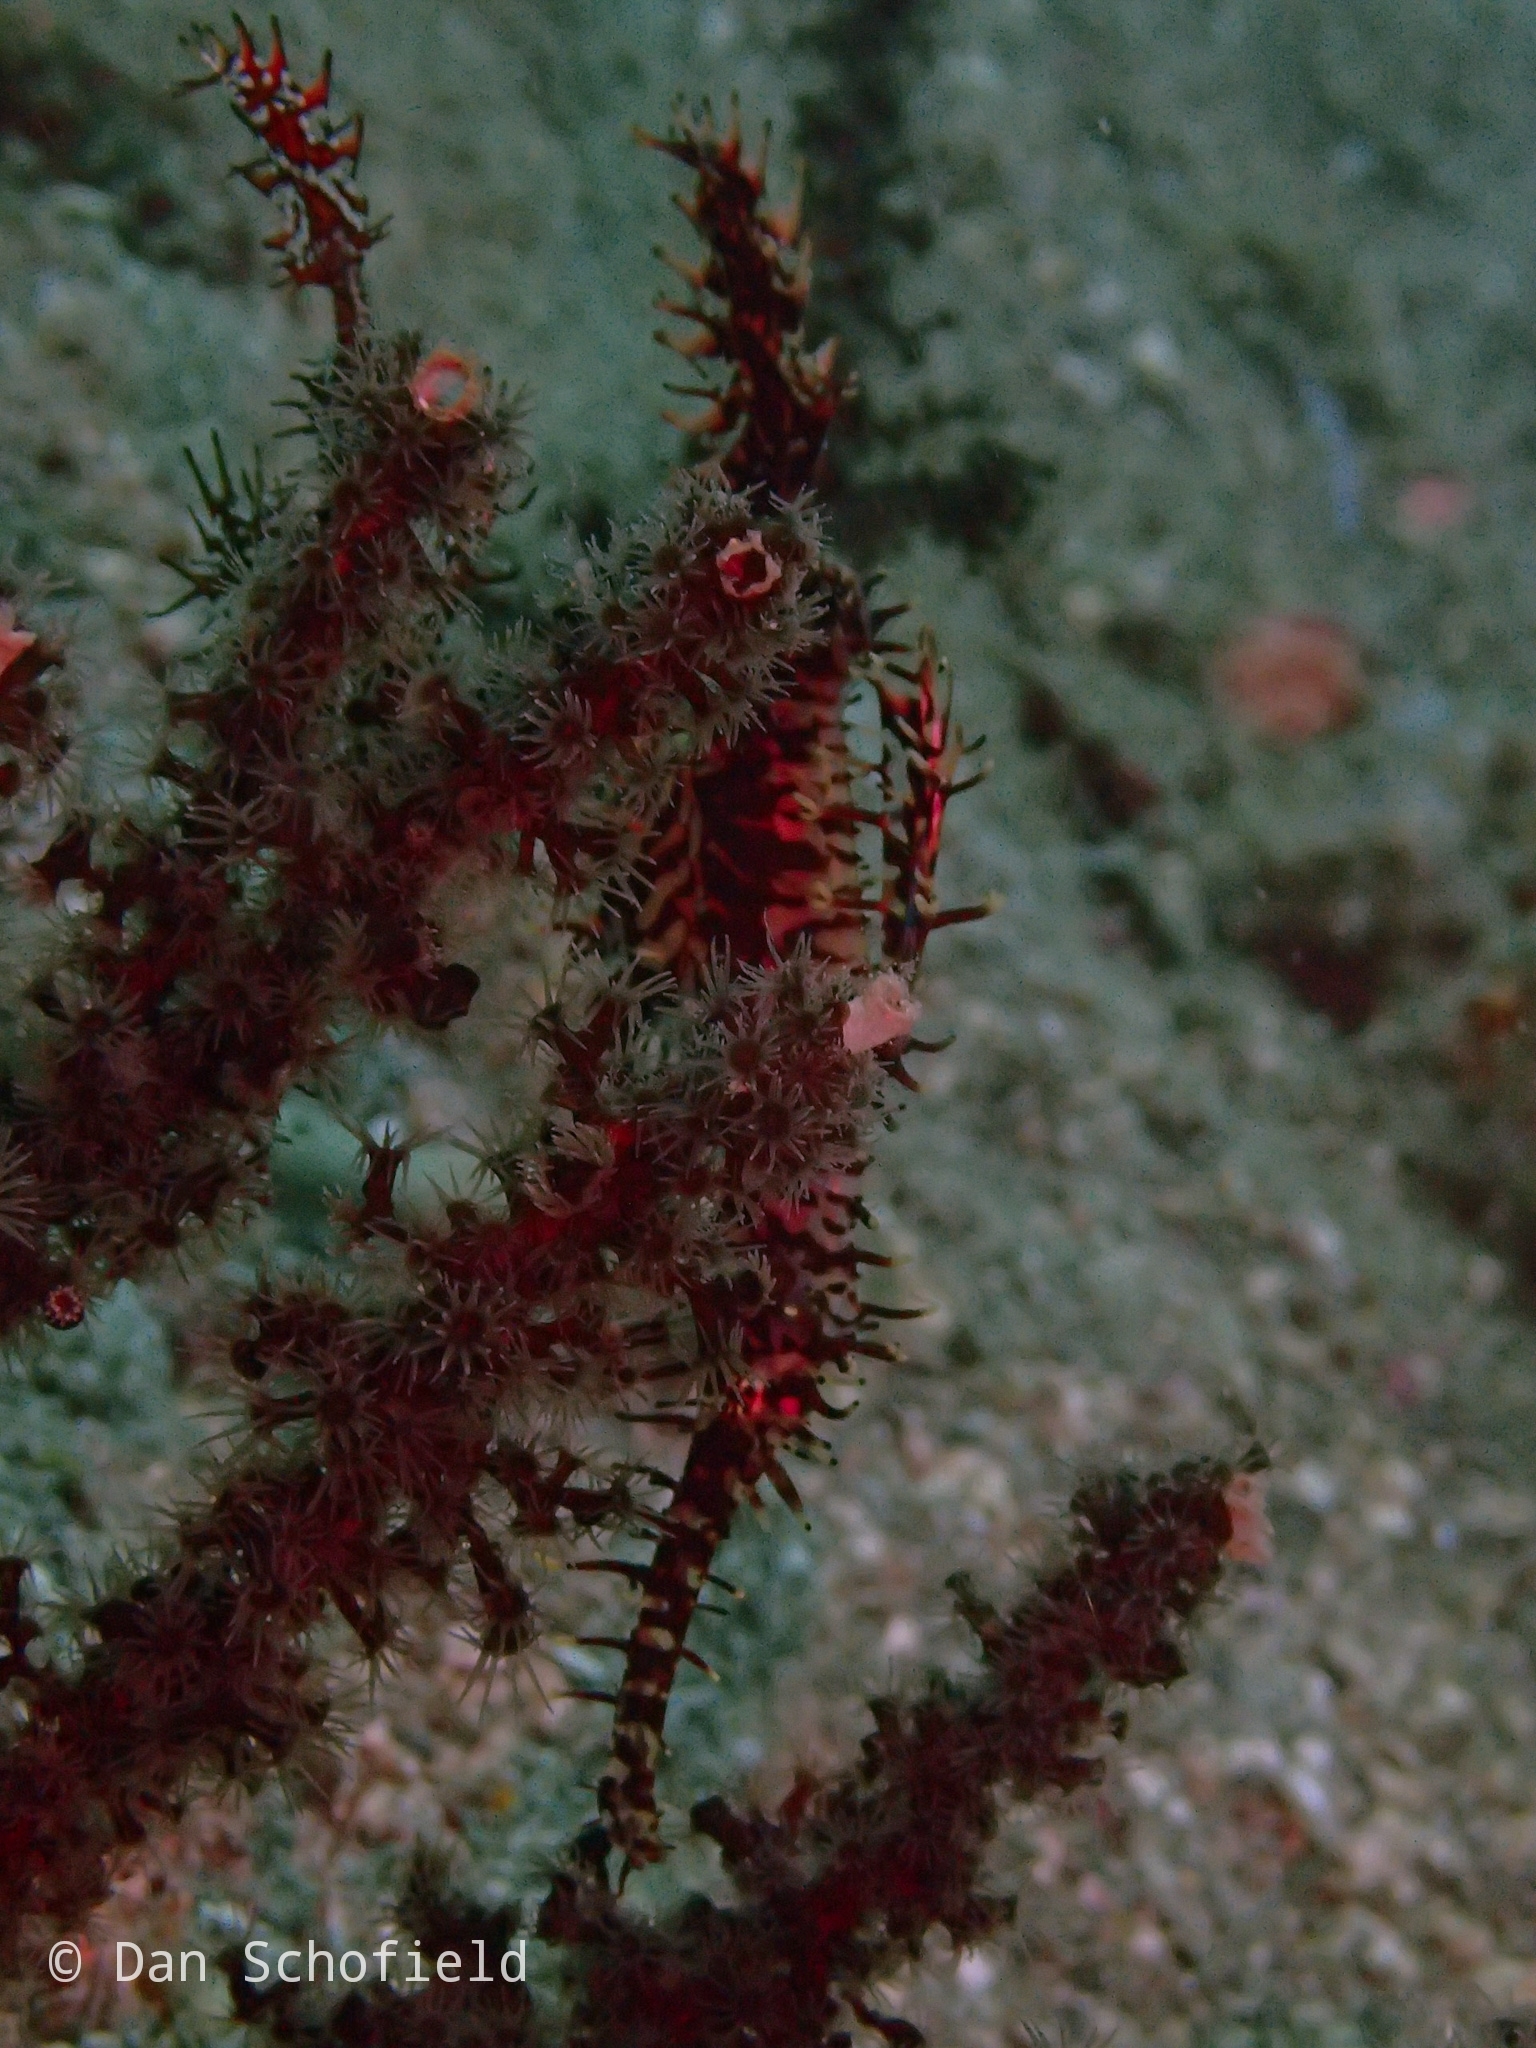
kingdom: Animalia
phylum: Chordata
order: Syngnathiformes
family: Solenostomidae
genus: Solenostomus
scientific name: Solenostomus paradoxus
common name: Ghost pipefish
